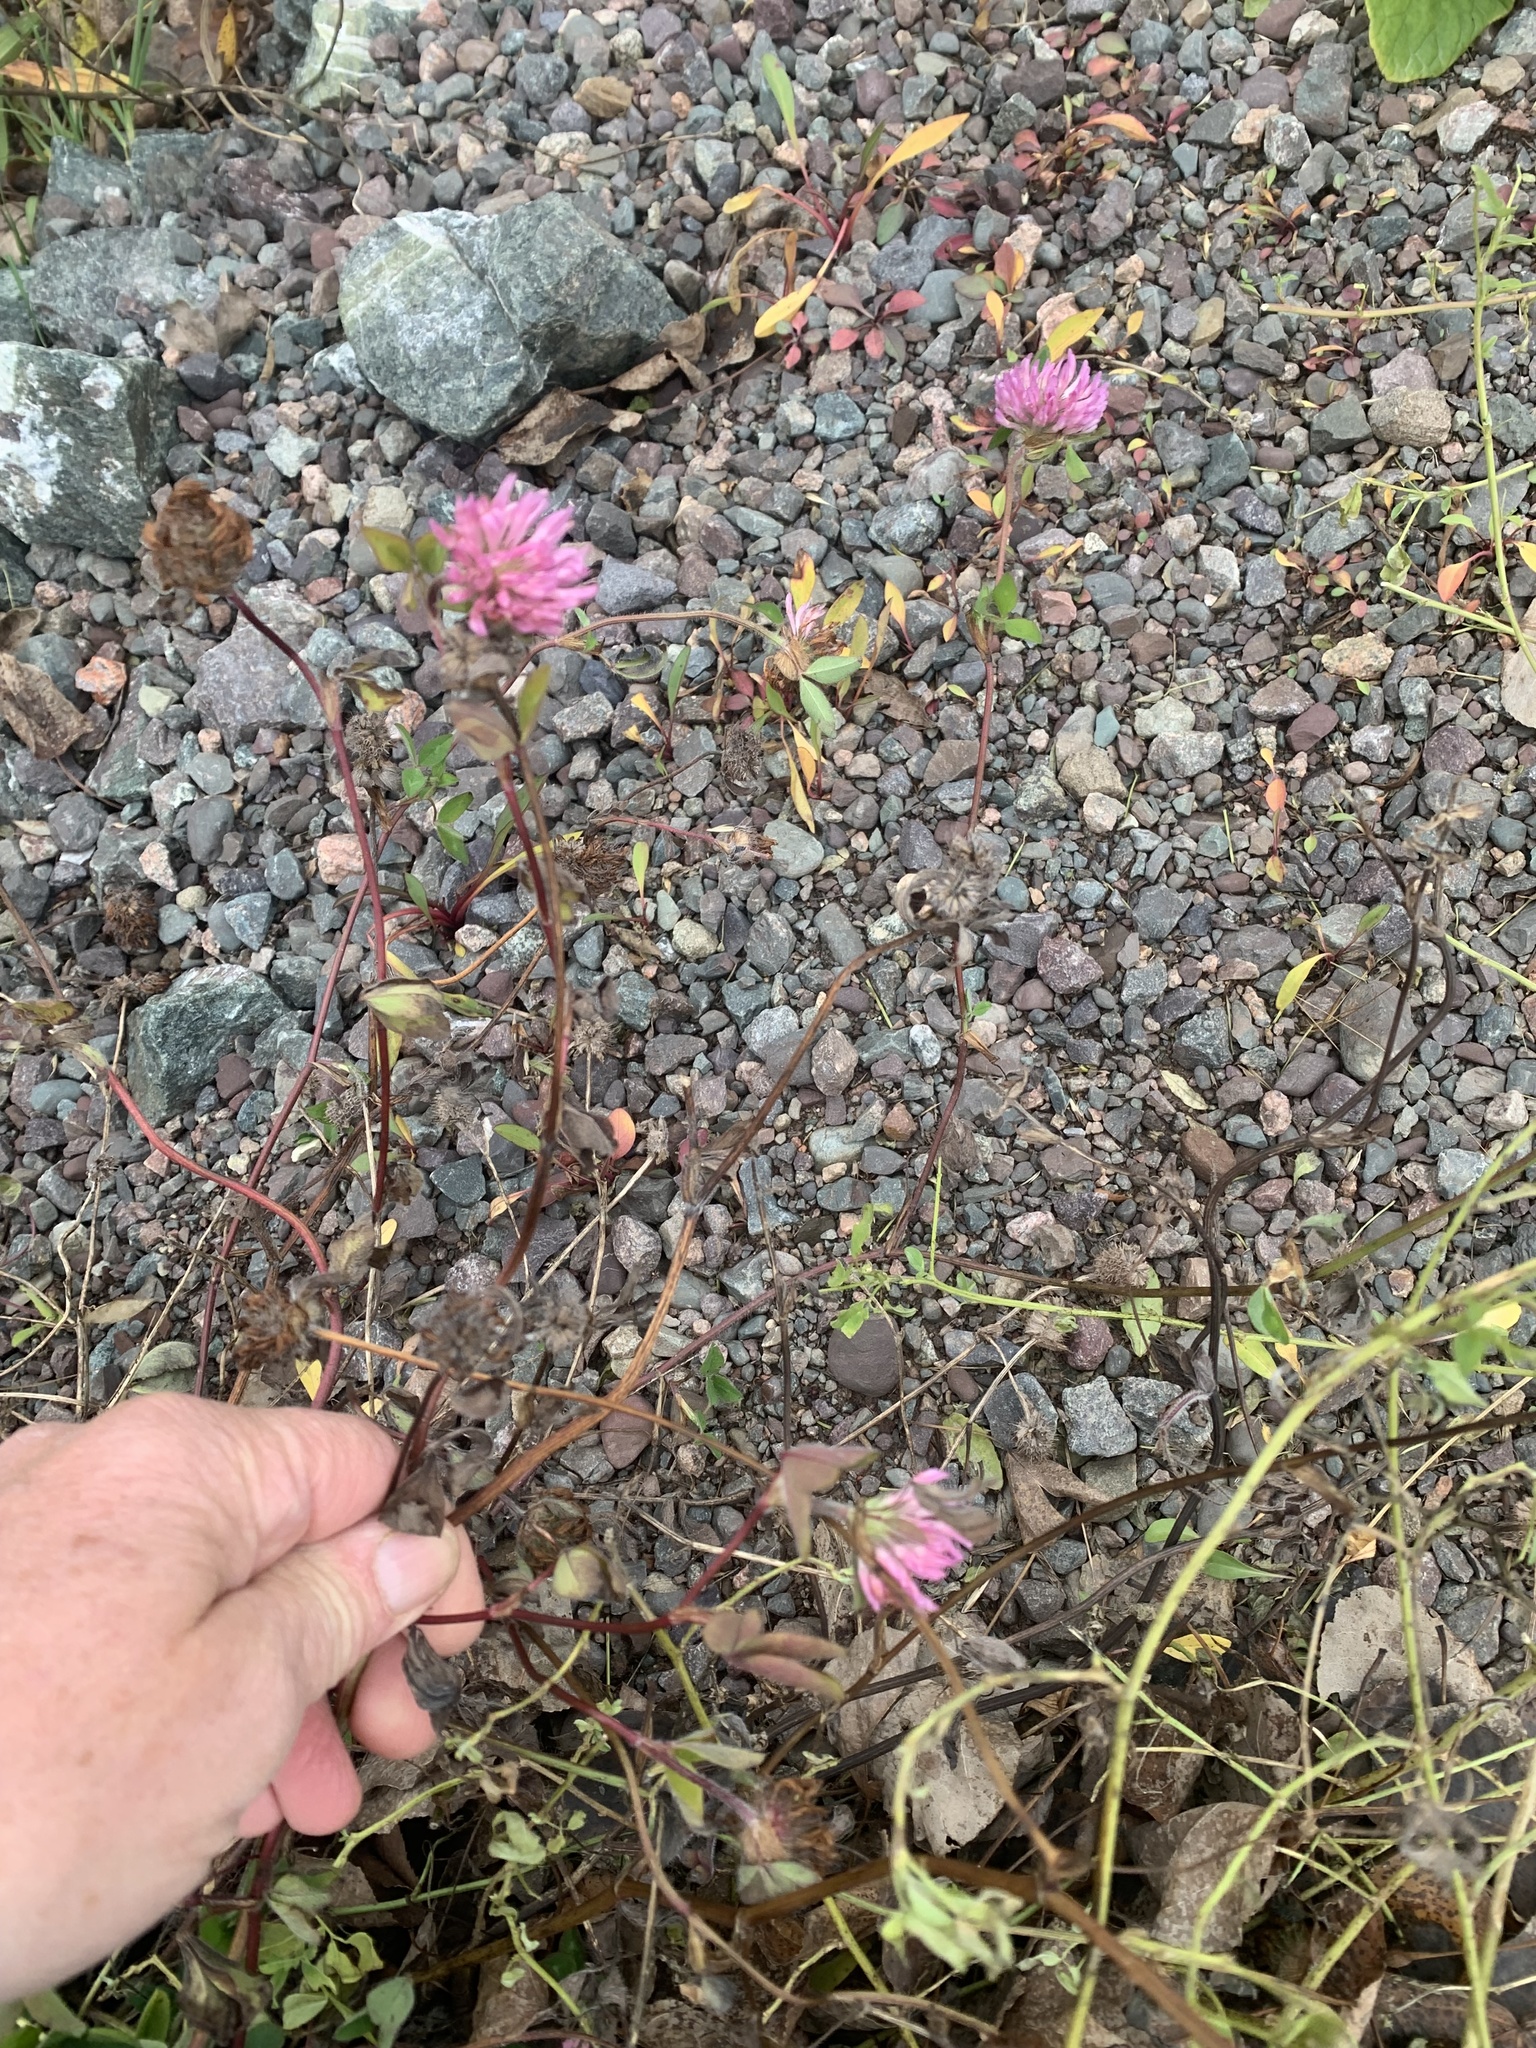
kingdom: Plantae
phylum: Tracheophyta
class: Magnoliopsida
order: Fabales
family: Fabaceae
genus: Trifolium
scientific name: Trifolium pratense
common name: Red clover
